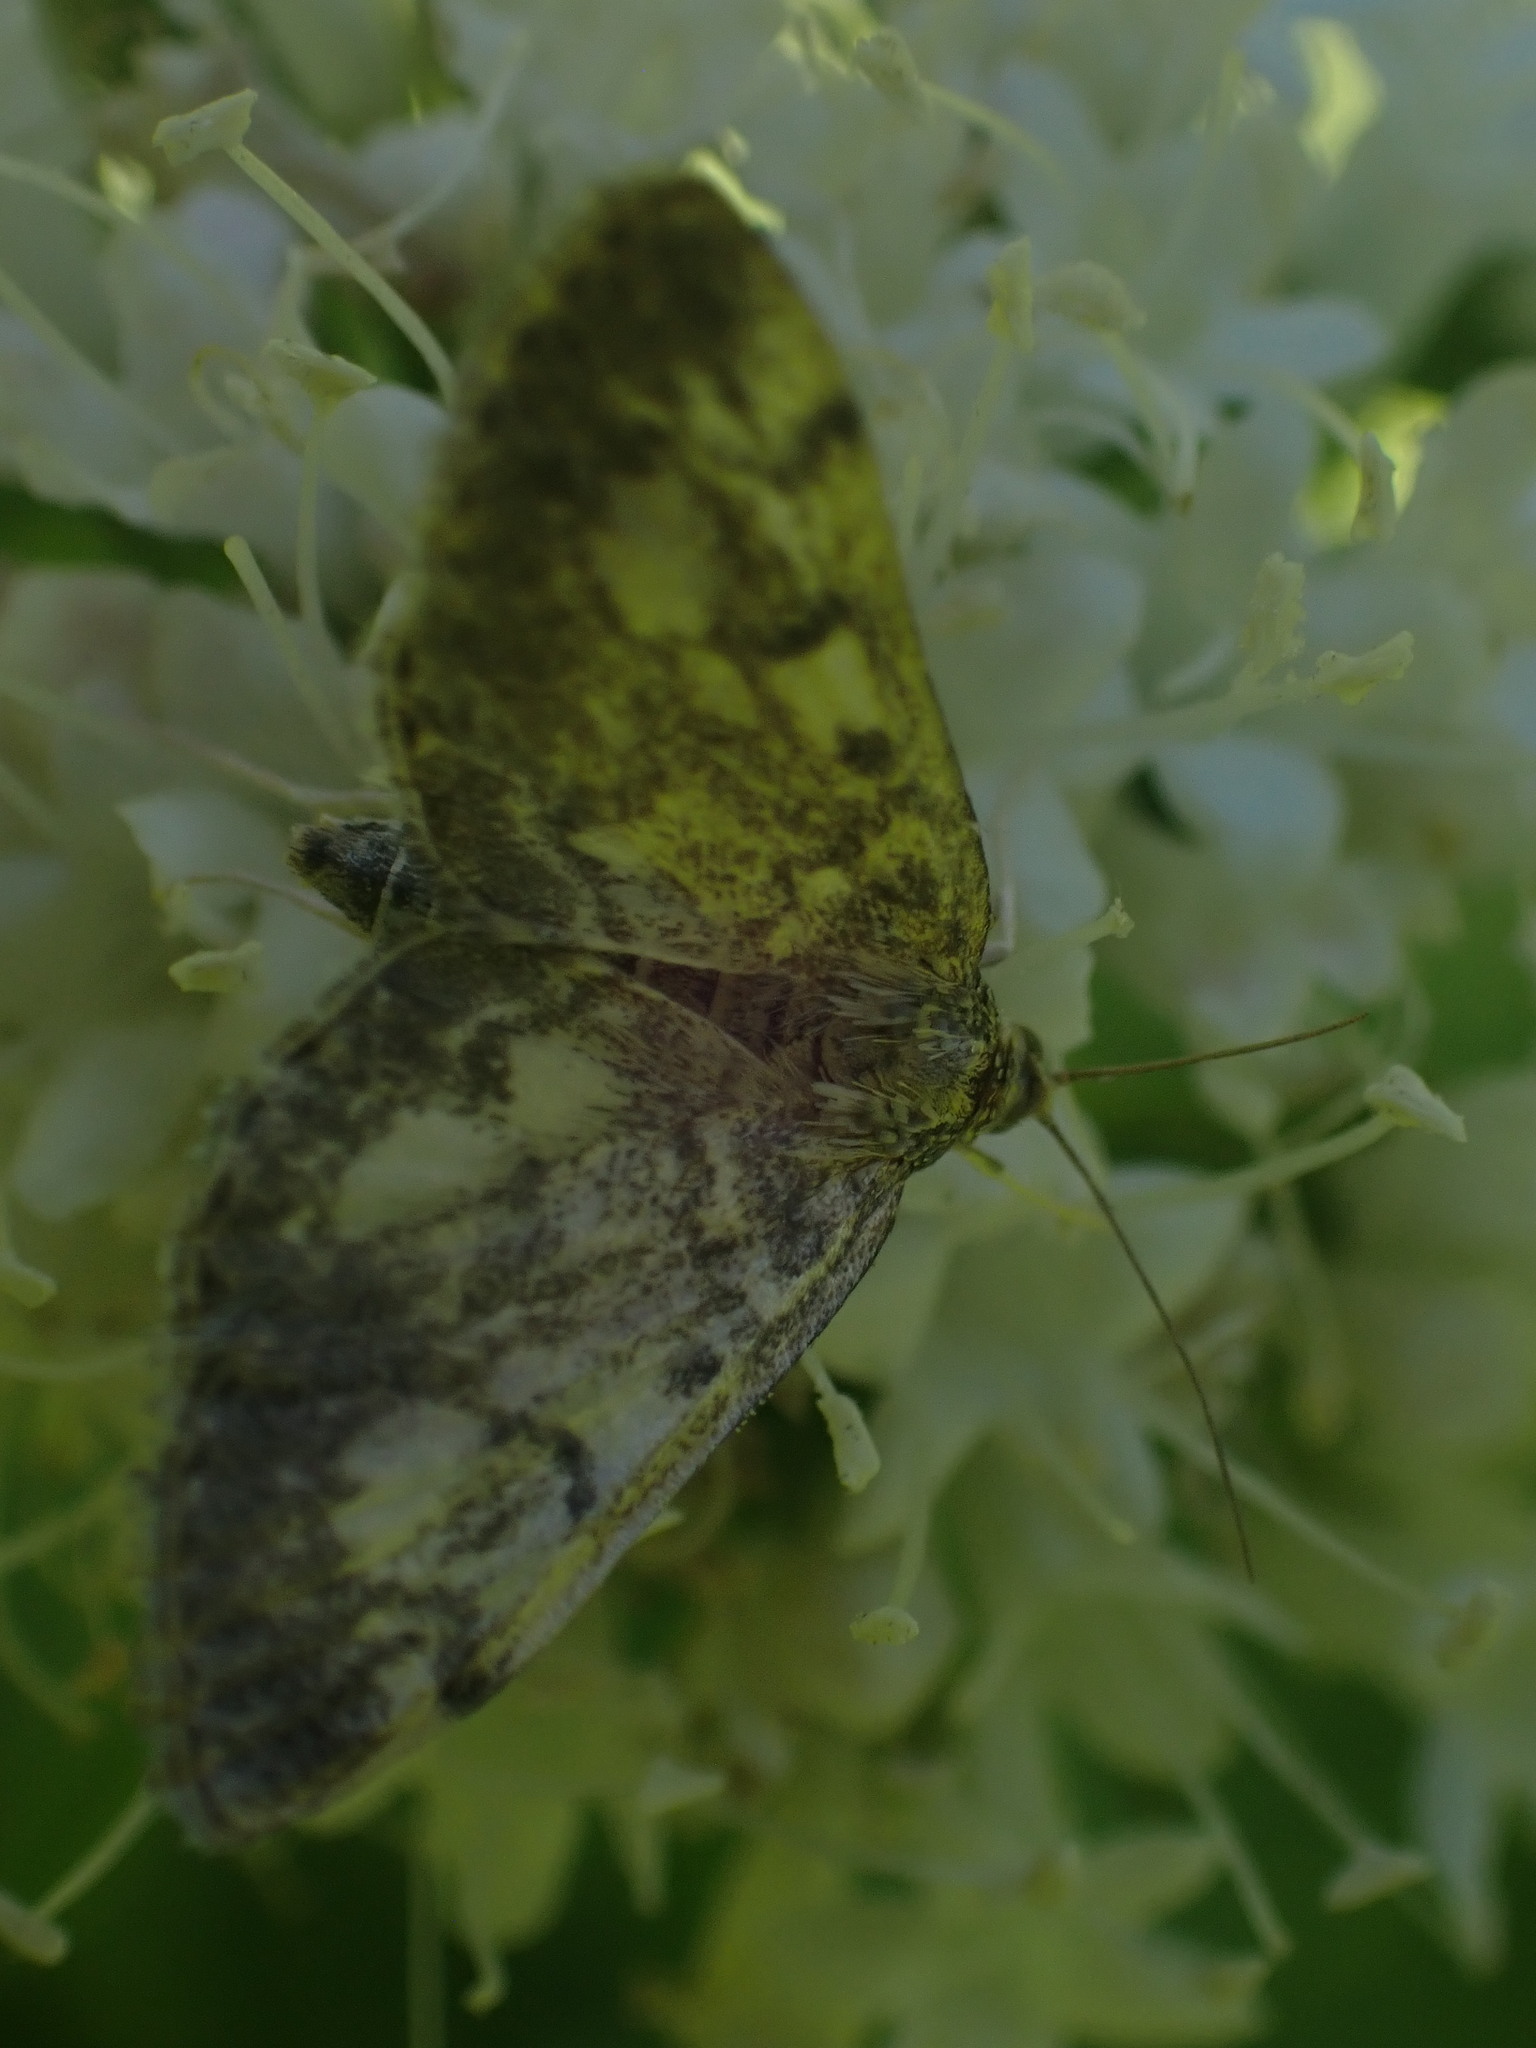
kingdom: Animalia
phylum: Arthropoda
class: Insecta
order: Lepidoptera
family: Crambidae
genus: Anania
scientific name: Anania tertialis
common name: Crowned phylctaenia moth
